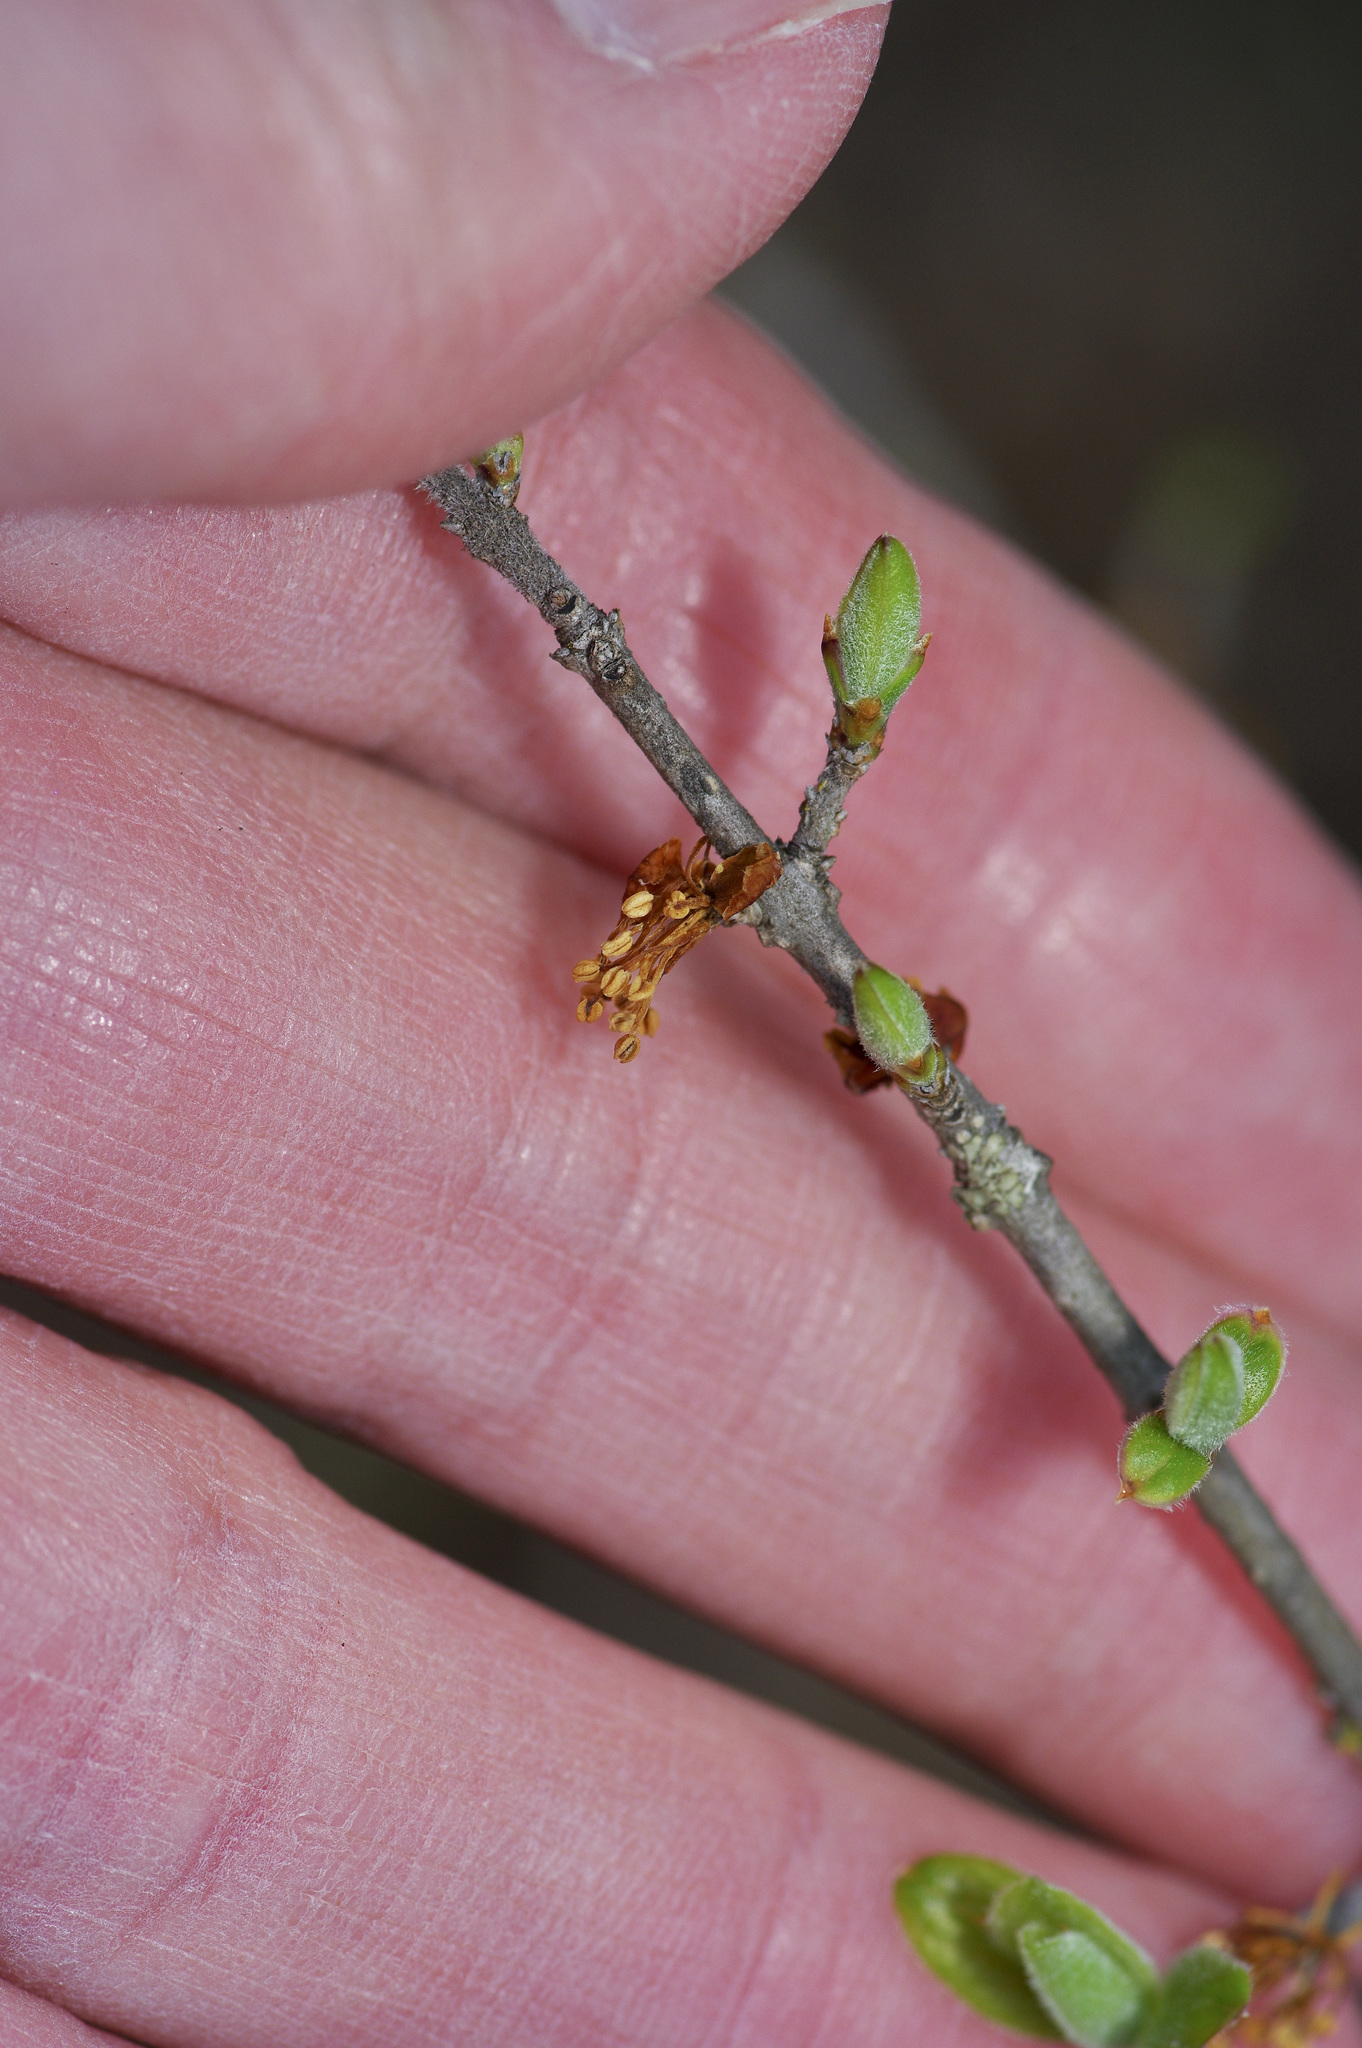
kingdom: Plantae
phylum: Tracheophyta
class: Magnoliopsida
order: Lamiales
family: Oleaceae
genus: Forestiera
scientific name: Forestiera pubescens
